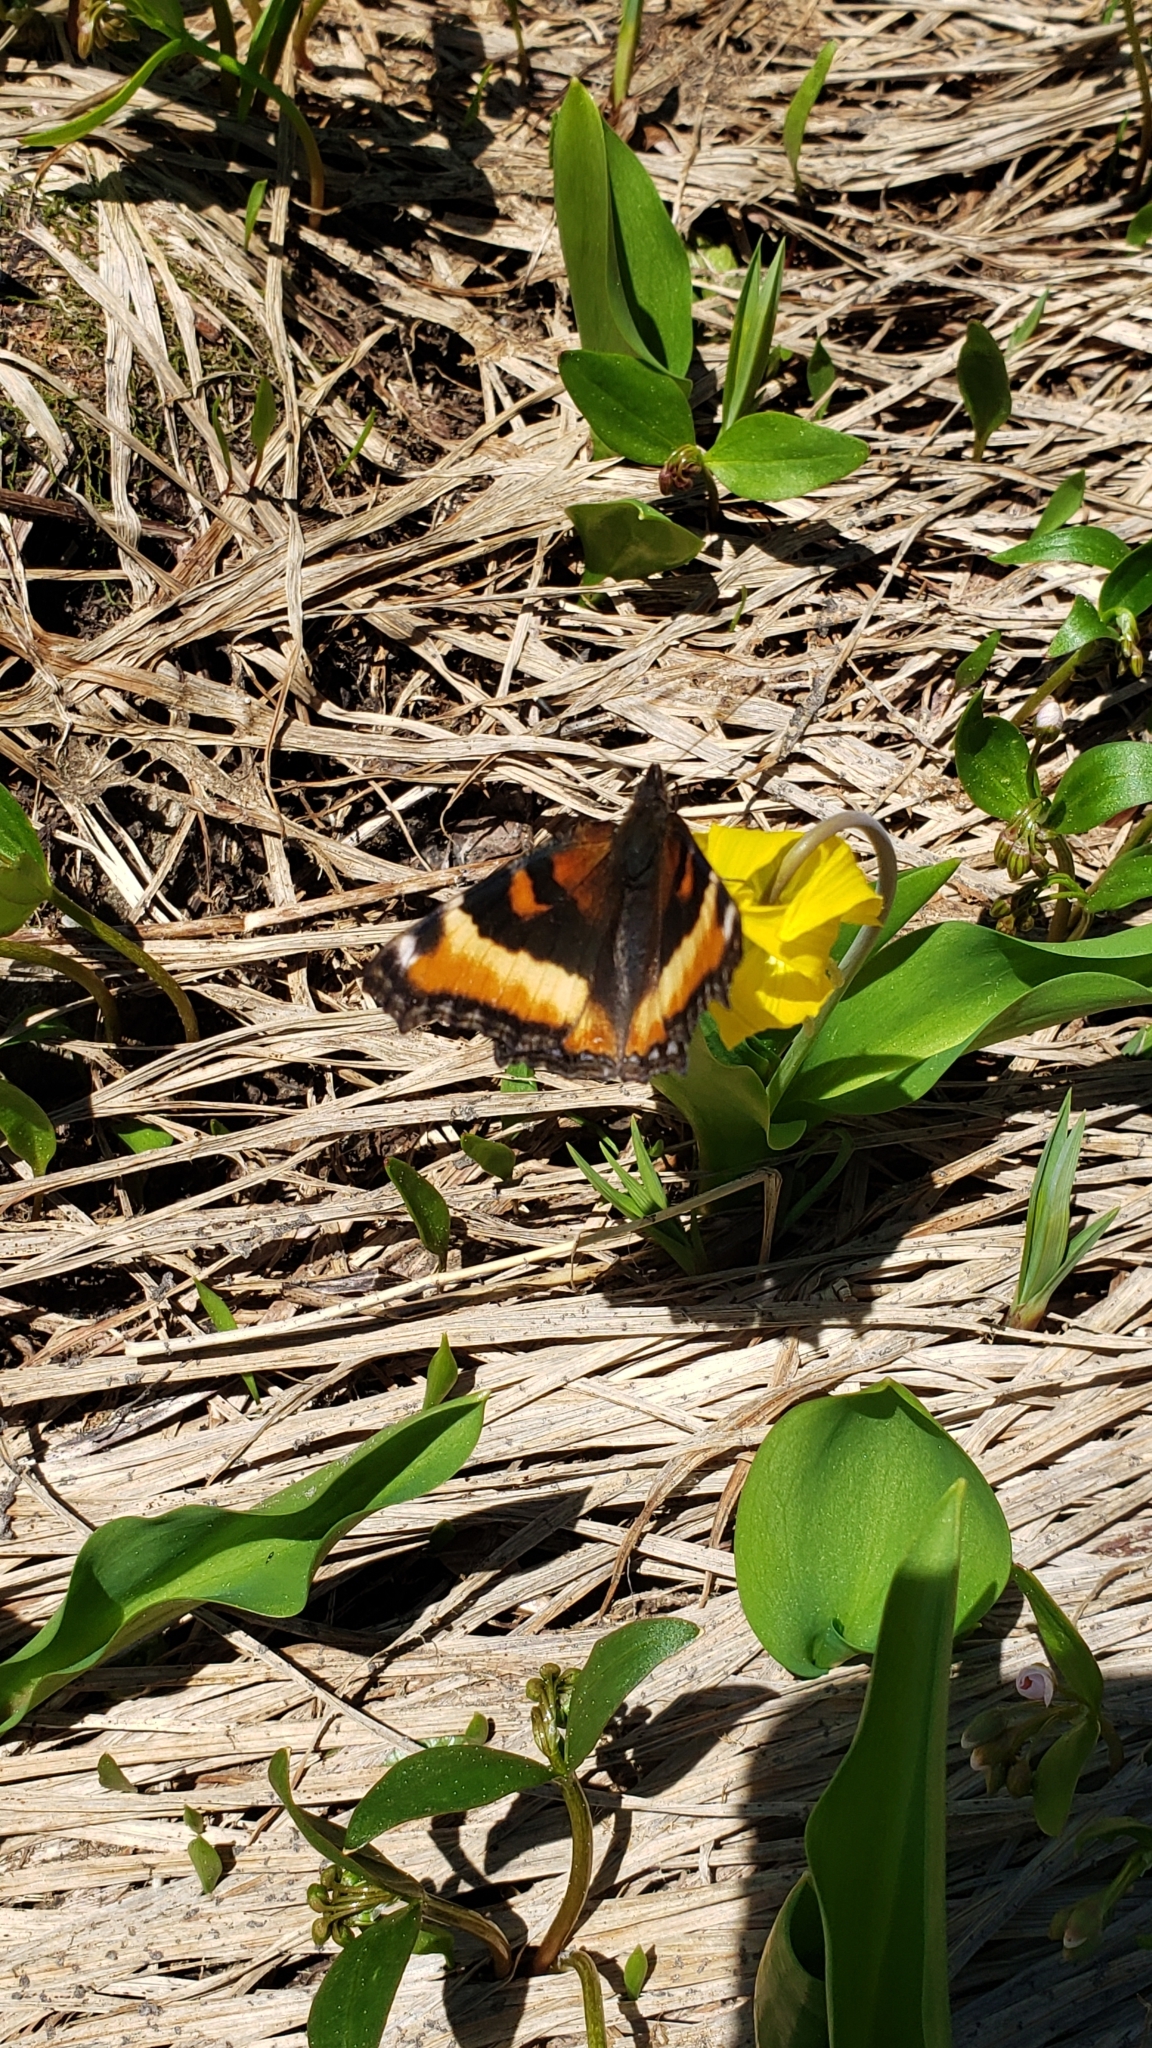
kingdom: Animalia
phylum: Arthropoda
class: Insecta
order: Lepidoptera
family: Nymphalidae
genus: Aglais
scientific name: Aglais milberti
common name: Milbert's tortoiseshell
